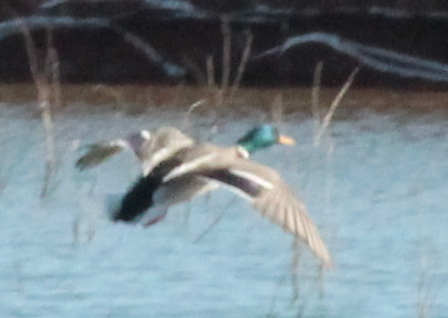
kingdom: Animalia
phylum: Chordata
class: Aves
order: Anseriformes
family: Anatidae
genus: Anas
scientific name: Anas platyrhynchos
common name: Mallard
